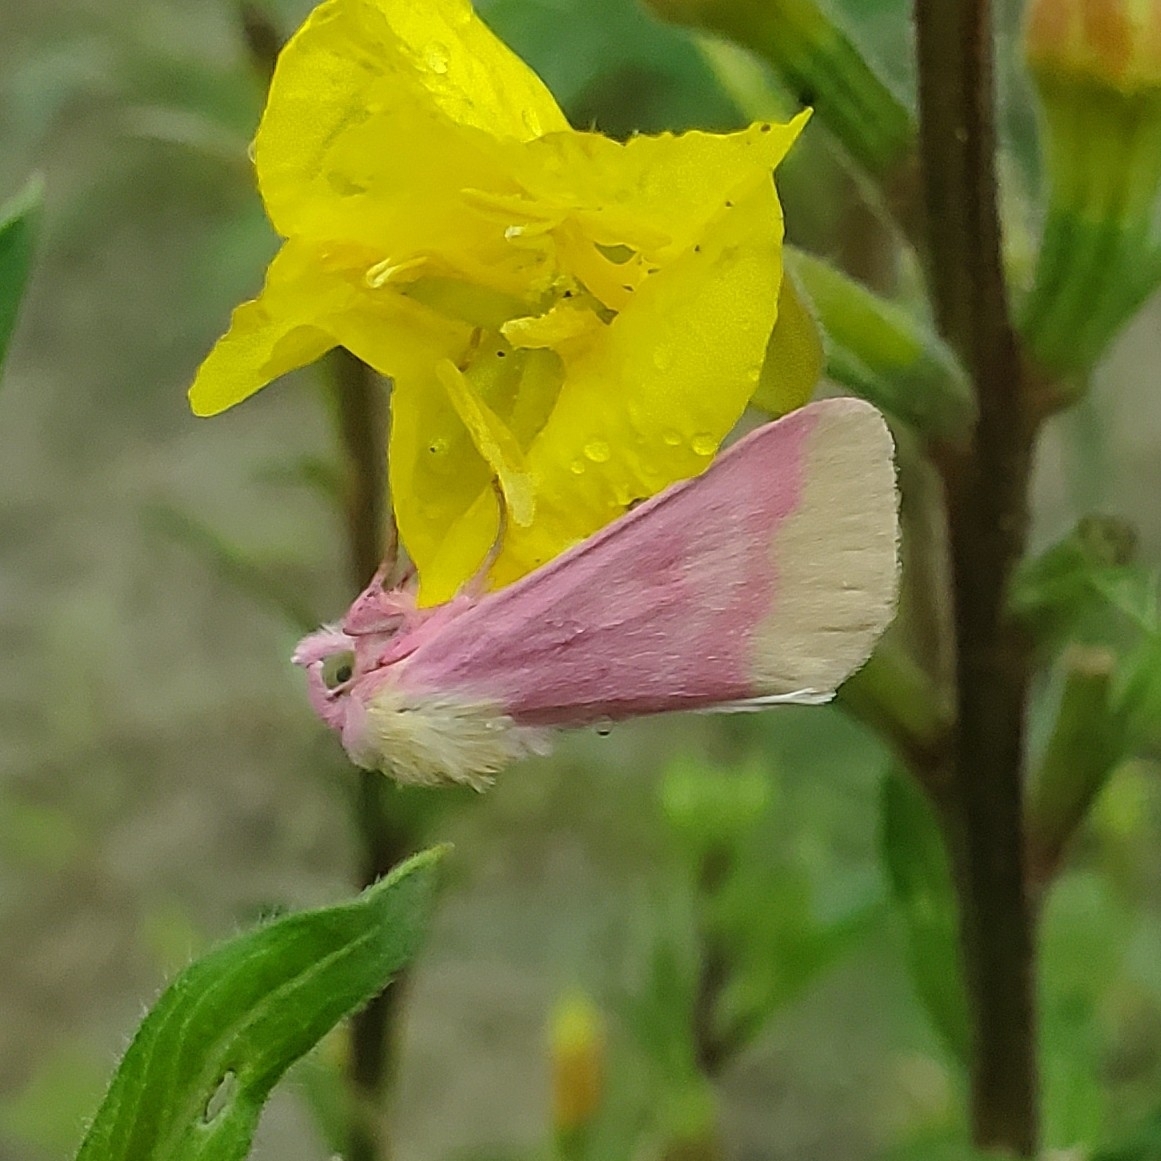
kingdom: Animalia
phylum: Arthropoda
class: Insecta
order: Lepidoptera
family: Noctuidae
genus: Schinia
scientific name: Schinia florida
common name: Primrose moth
